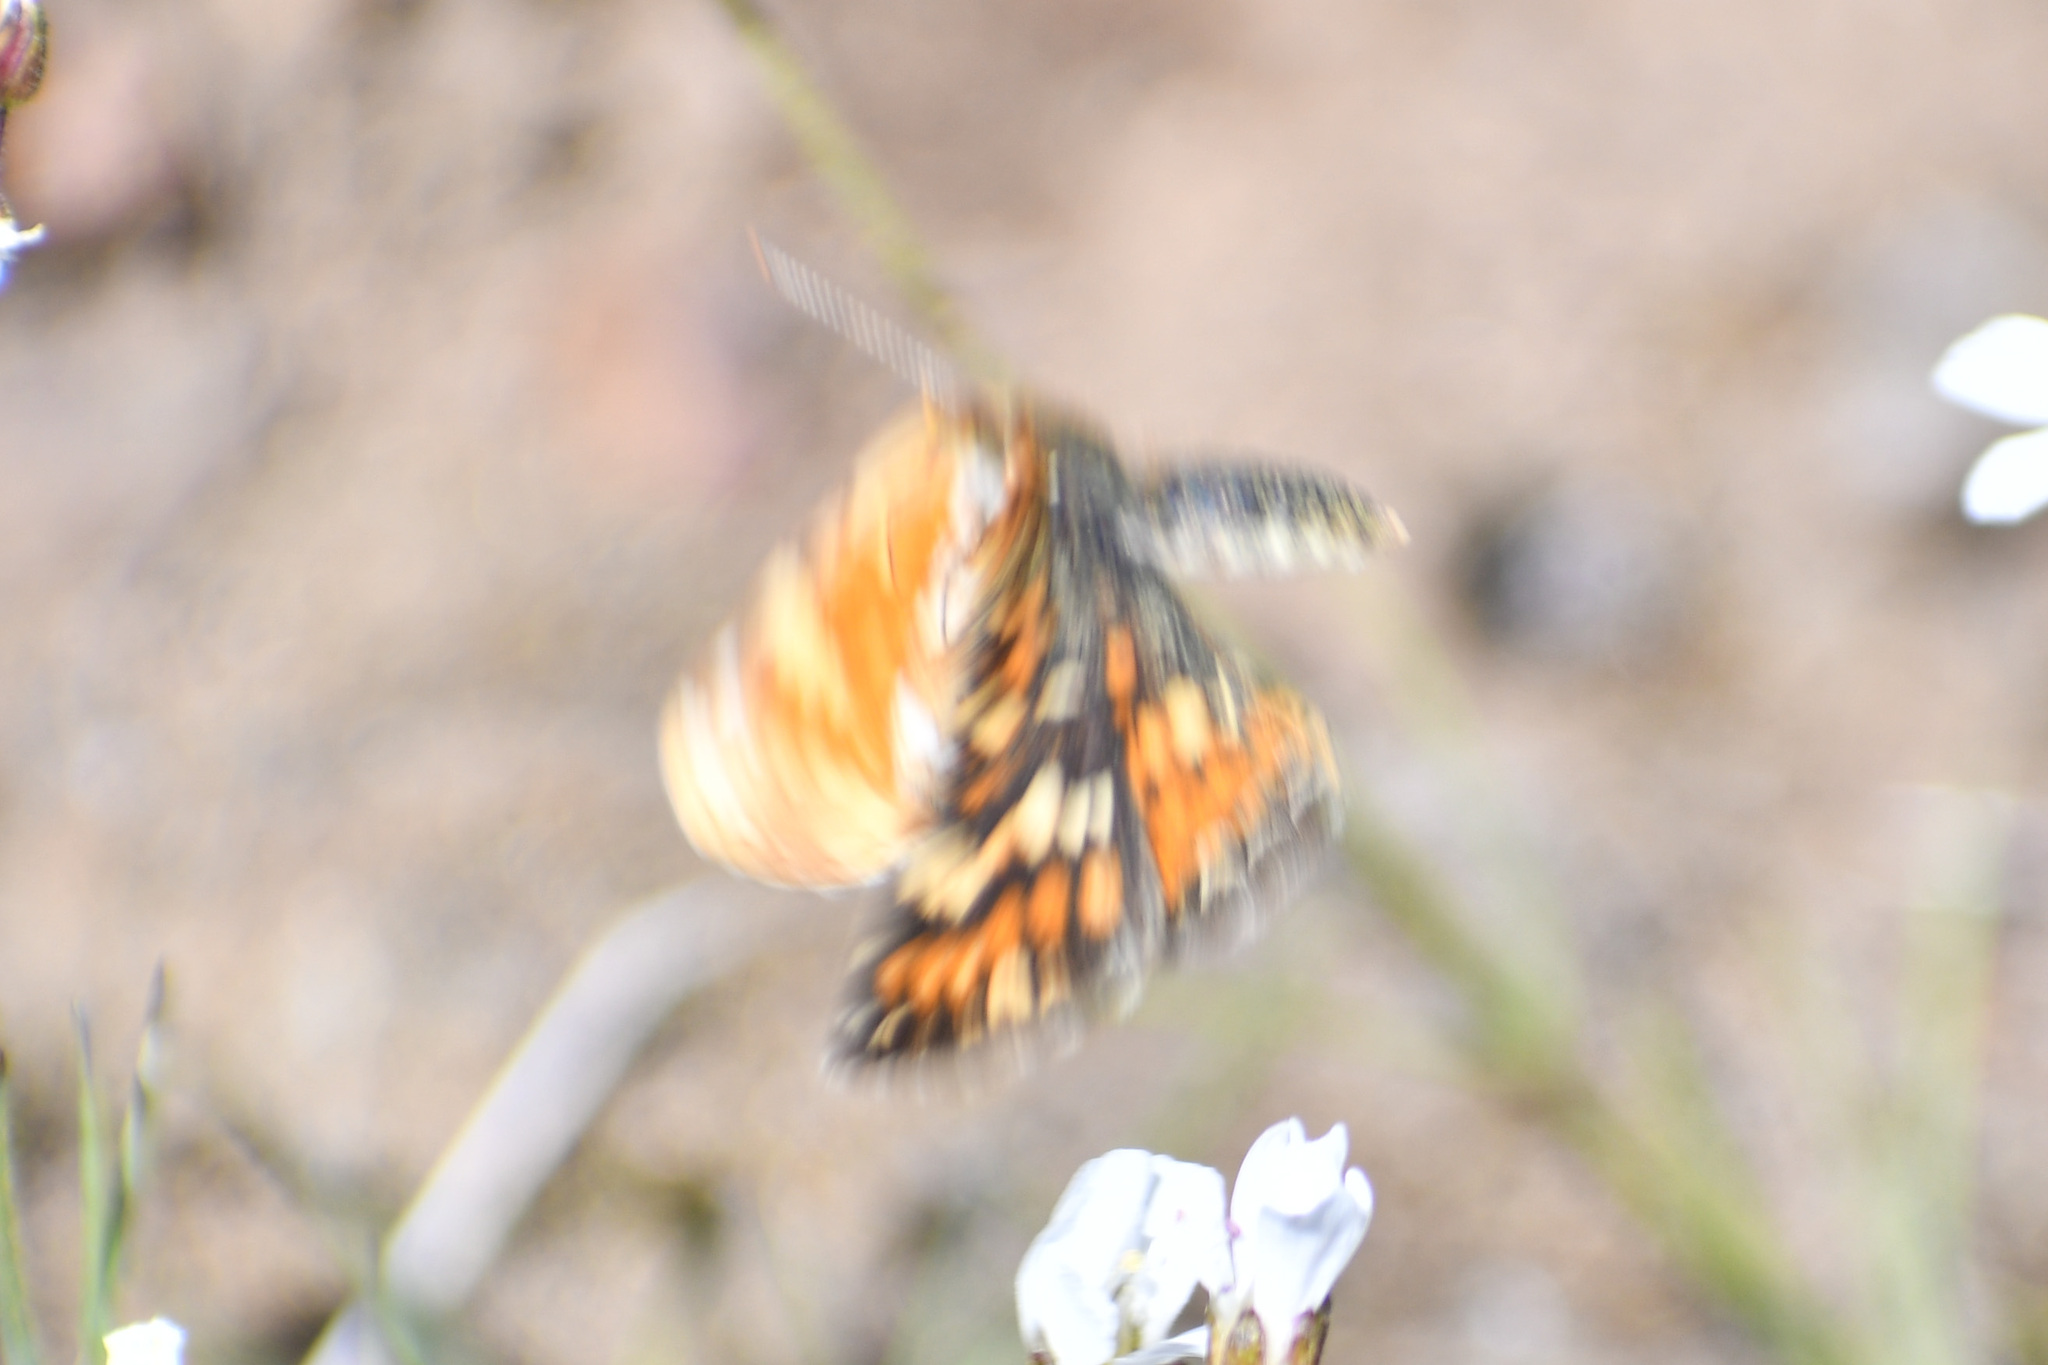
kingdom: Animalia
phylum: Arthropoda
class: Insecta
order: Lepidoptera
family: Nymphalidae
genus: Phyciodes
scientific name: Phyciodes tharos
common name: Pearl crescent
